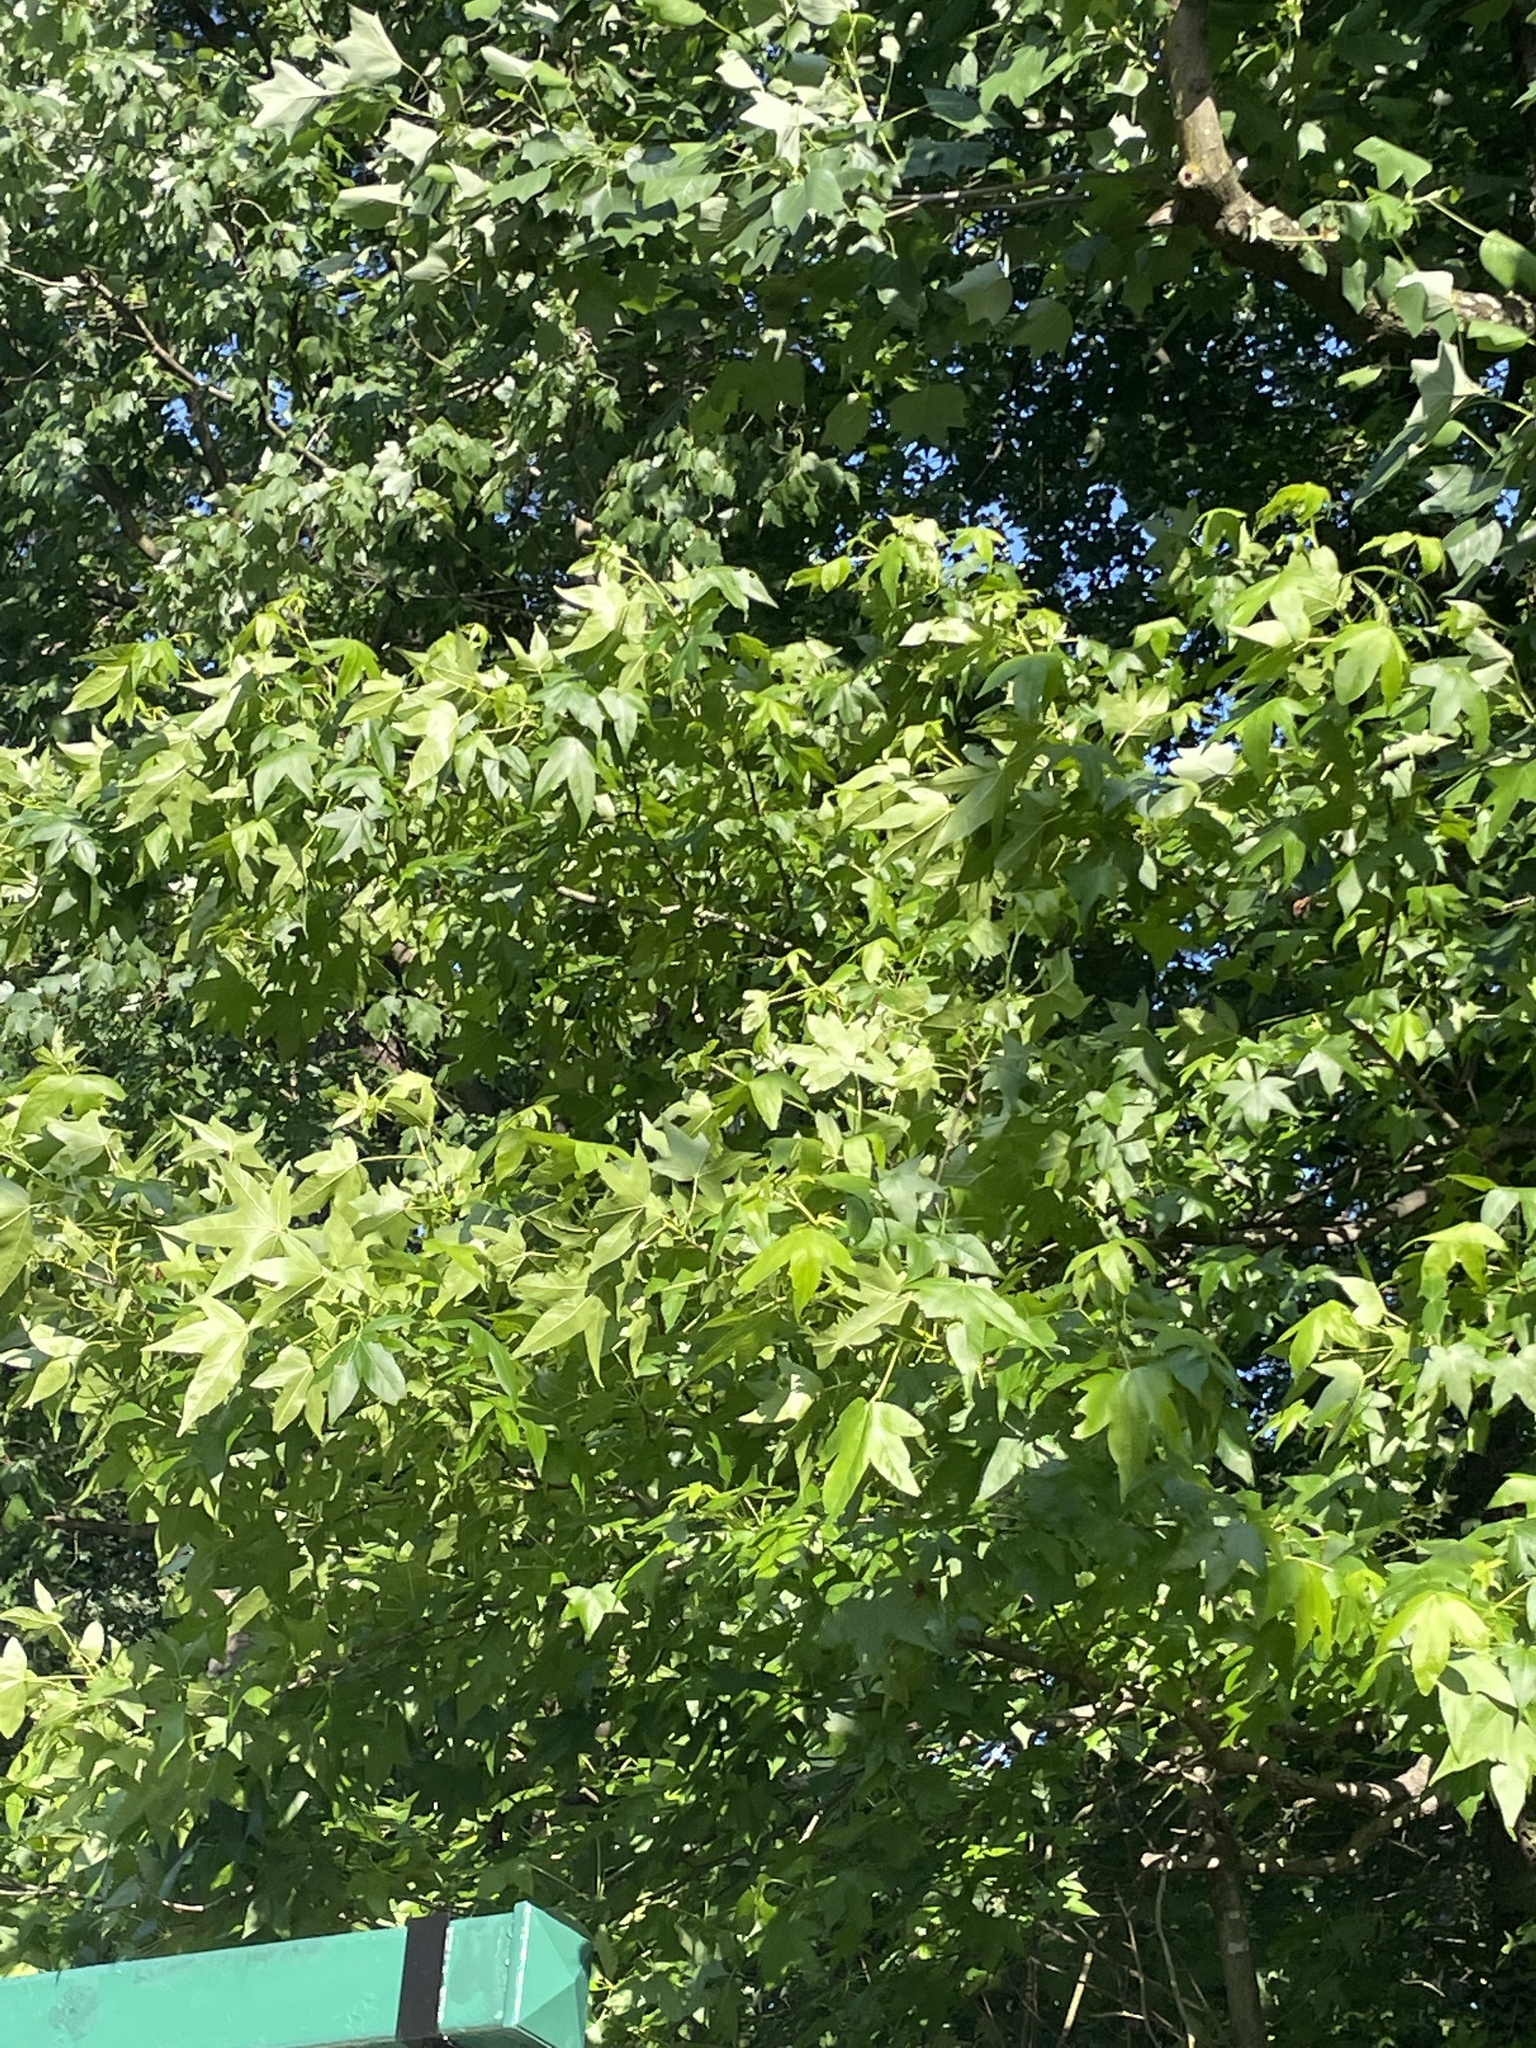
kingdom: Plantae
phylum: Tracheophyta
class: Magnoliopsida
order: Saxifragales
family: Altingiaceae
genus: Liquidambar
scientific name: Liquidambar styraciflua
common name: Sweet gum
